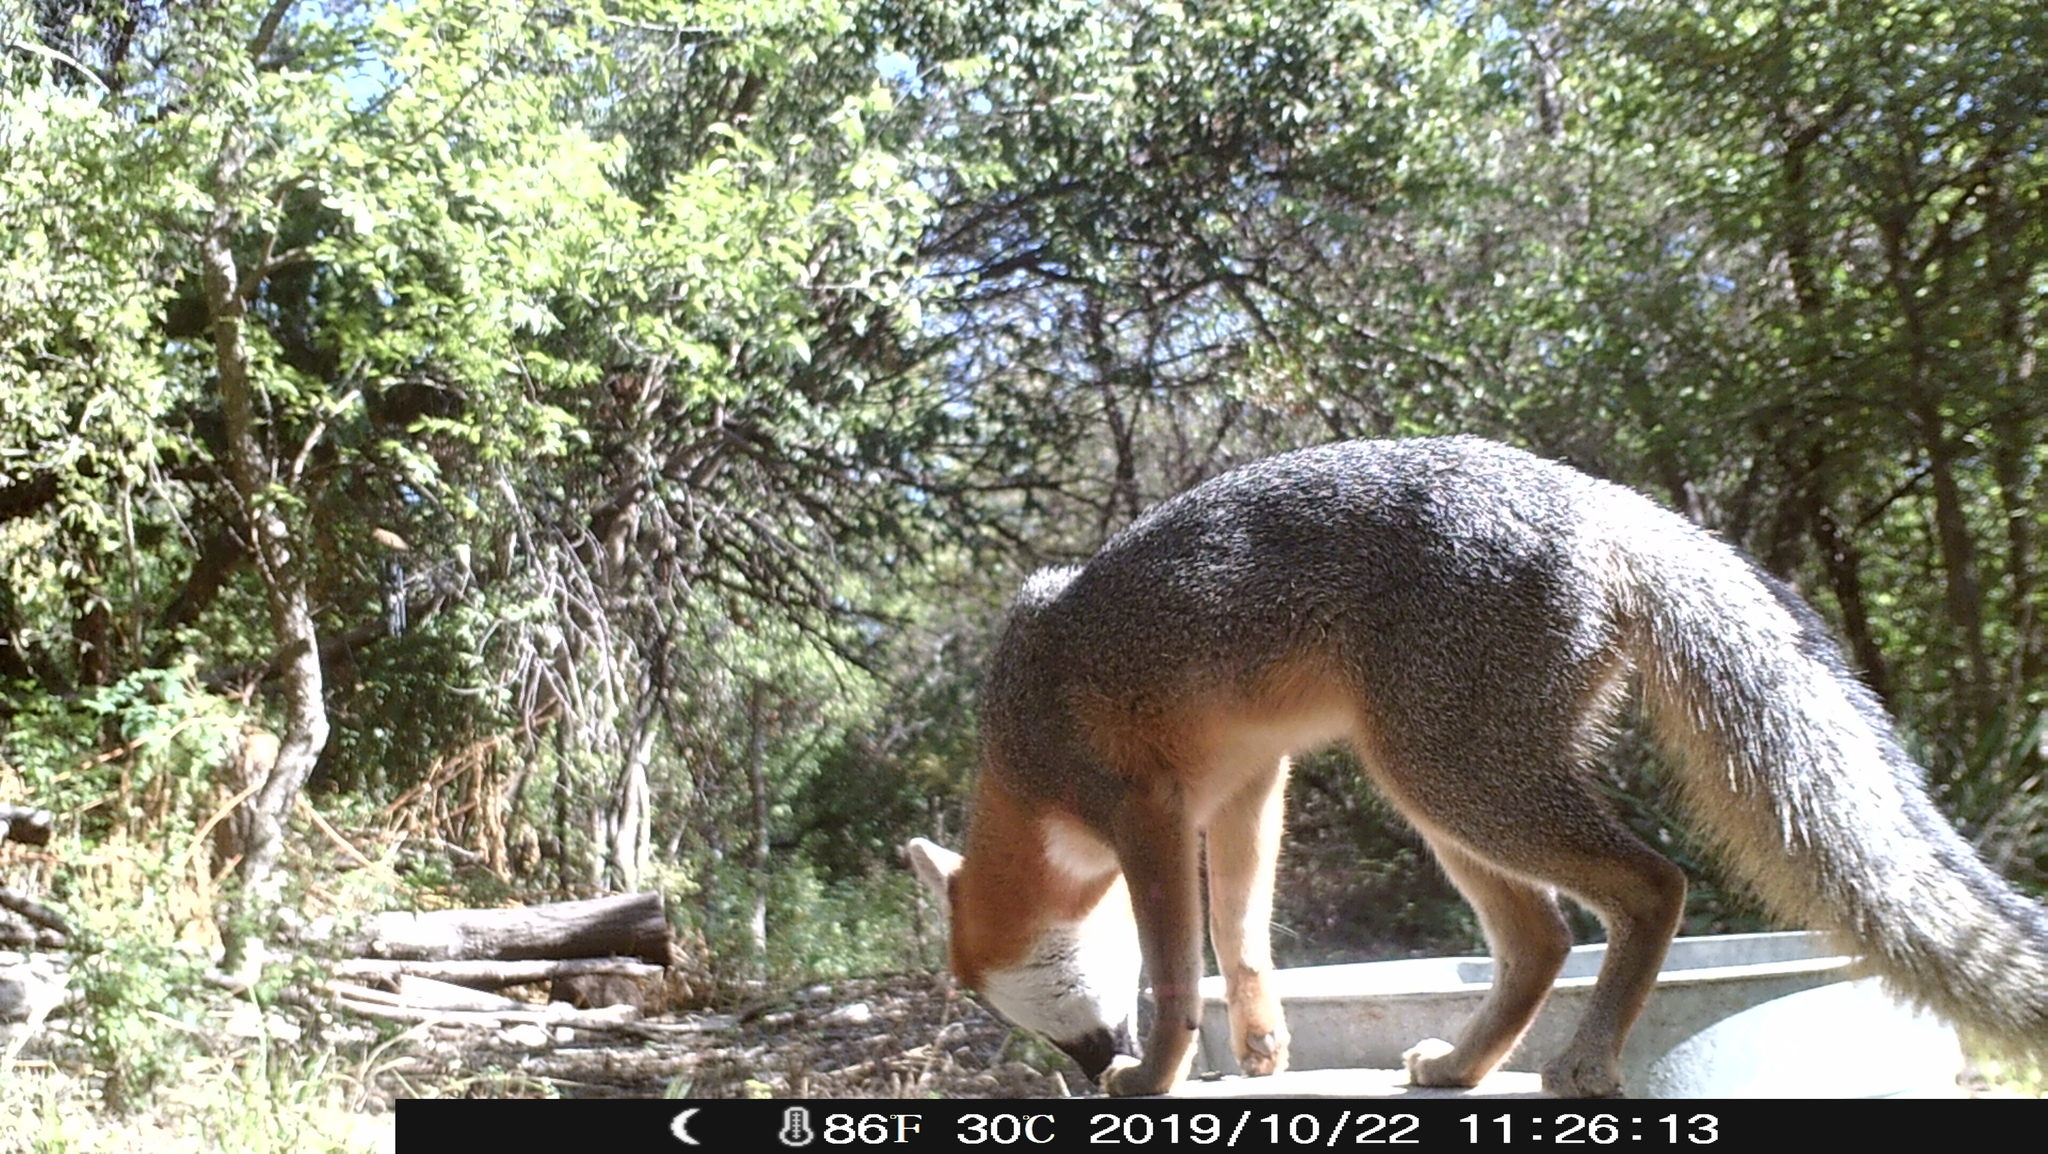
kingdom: Animalia
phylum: Chordata
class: Mammalia
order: Carnivora
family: Canidae
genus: Urocyon
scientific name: Urocyon cinereoargenteus
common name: Gray fox
